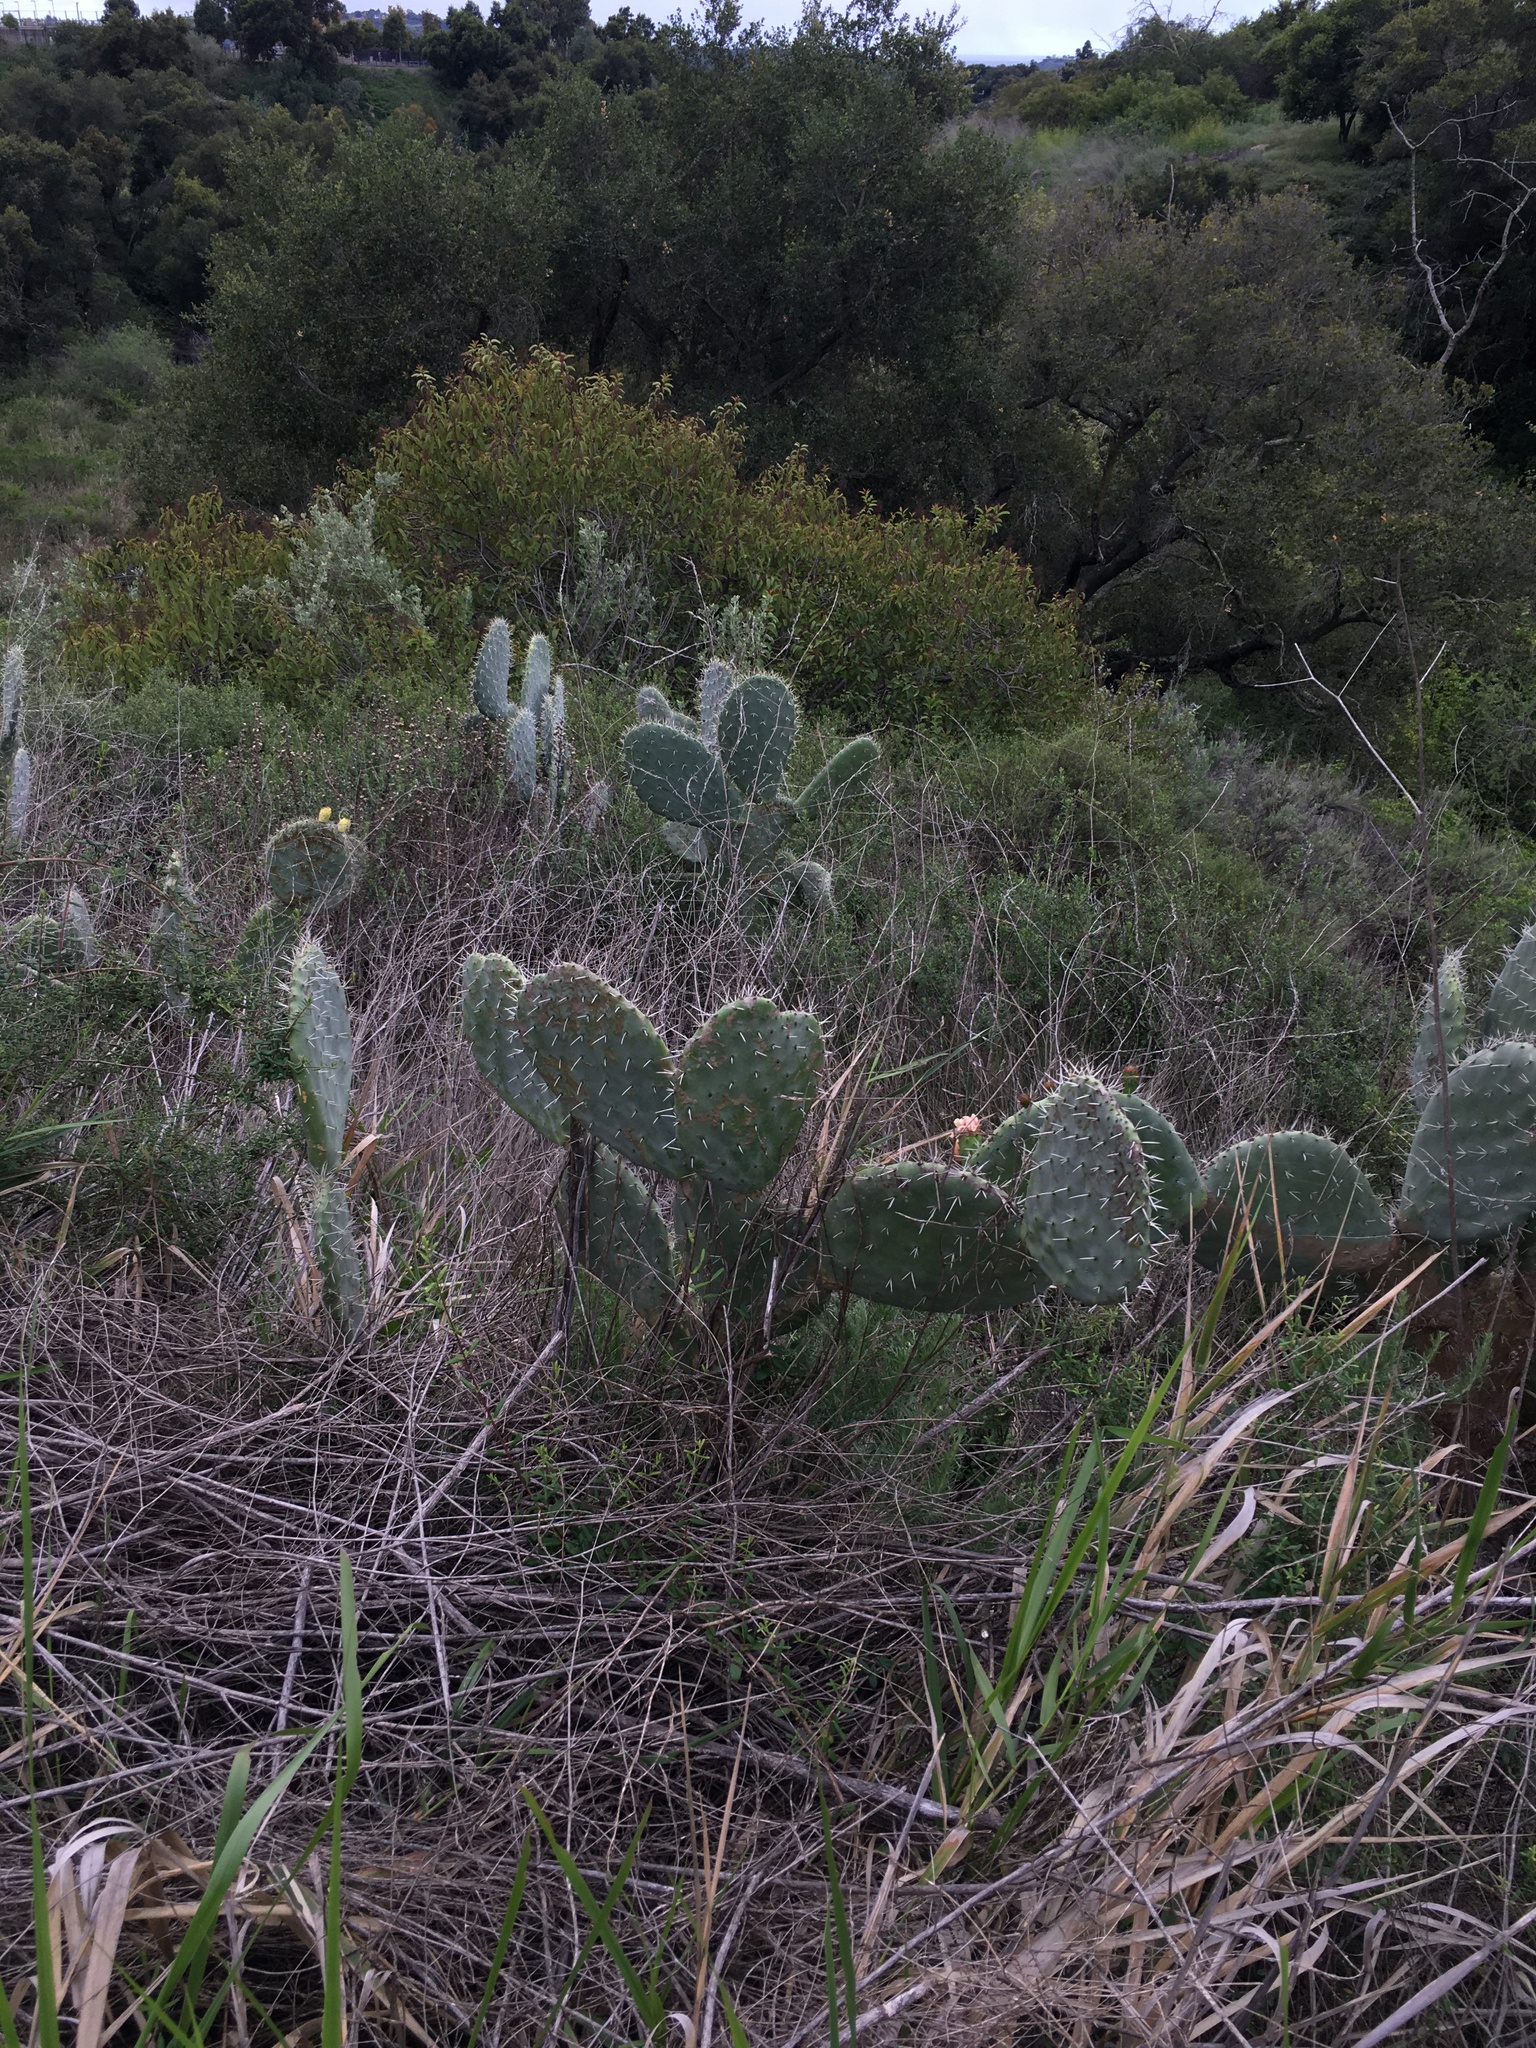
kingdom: Plantae
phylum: Tracheophyta
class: Liliopsida
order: Poales
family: Poaceae
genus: Leymus
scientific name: Leymus condensatus
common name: Giant wild rye
